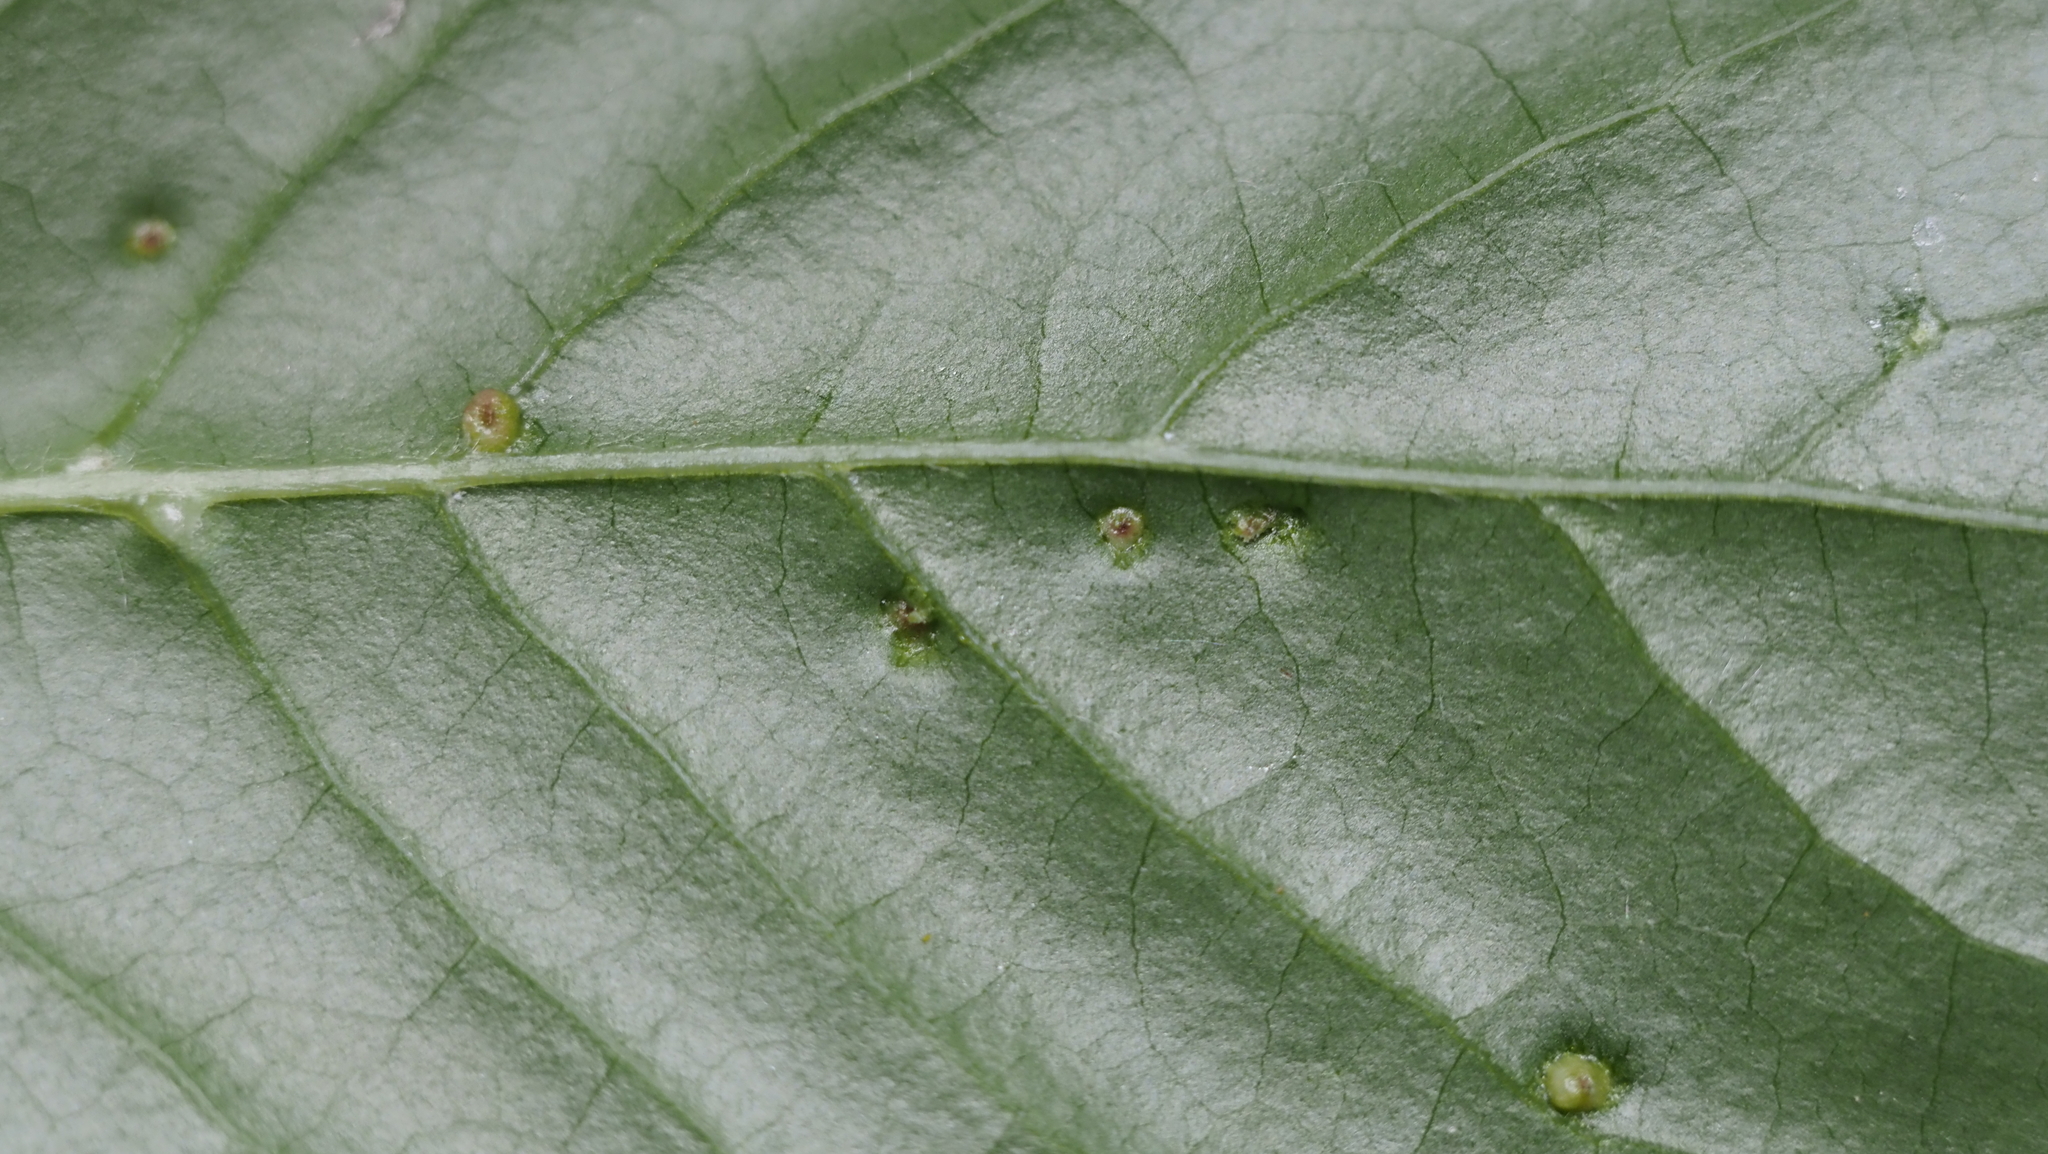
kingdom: Animalia
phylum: Arthropoda
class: Arachnida
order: Trombidiformes
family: Eriophyidae
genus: Aceria
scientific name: Aceria
